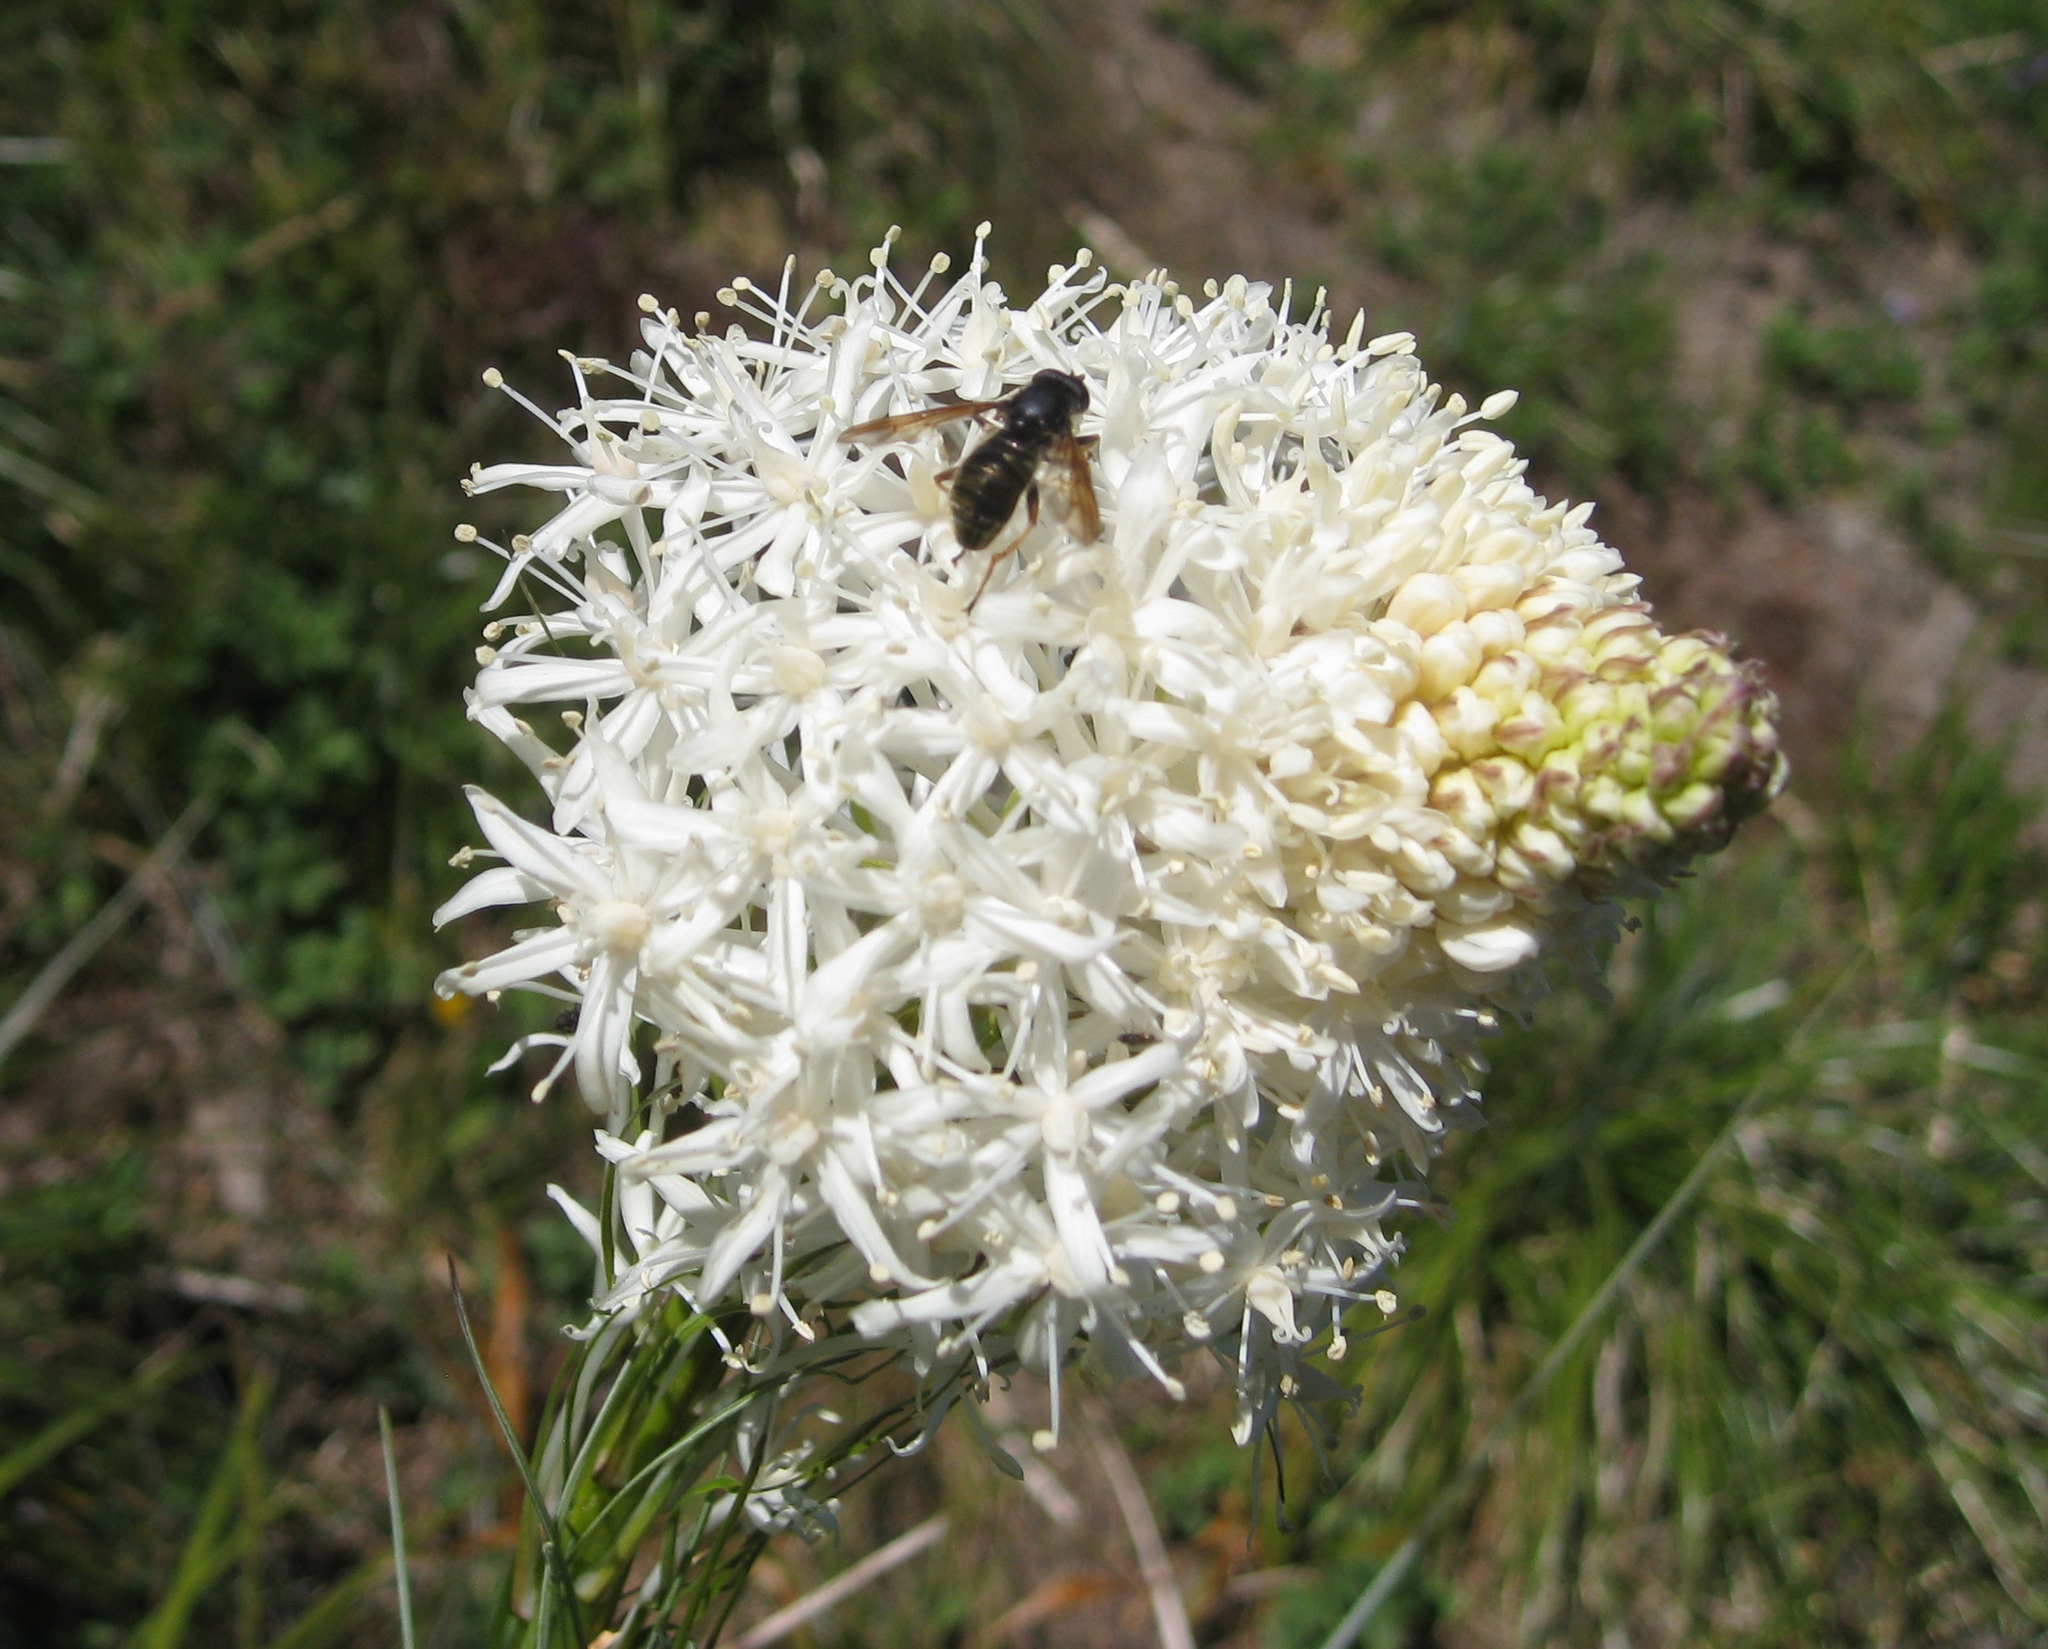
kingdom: Animalia
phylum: Arthropoda
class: Insecta
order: Diptera
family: Syrphidae
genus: Hadromyia
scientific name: Hadromyia aldrichi
